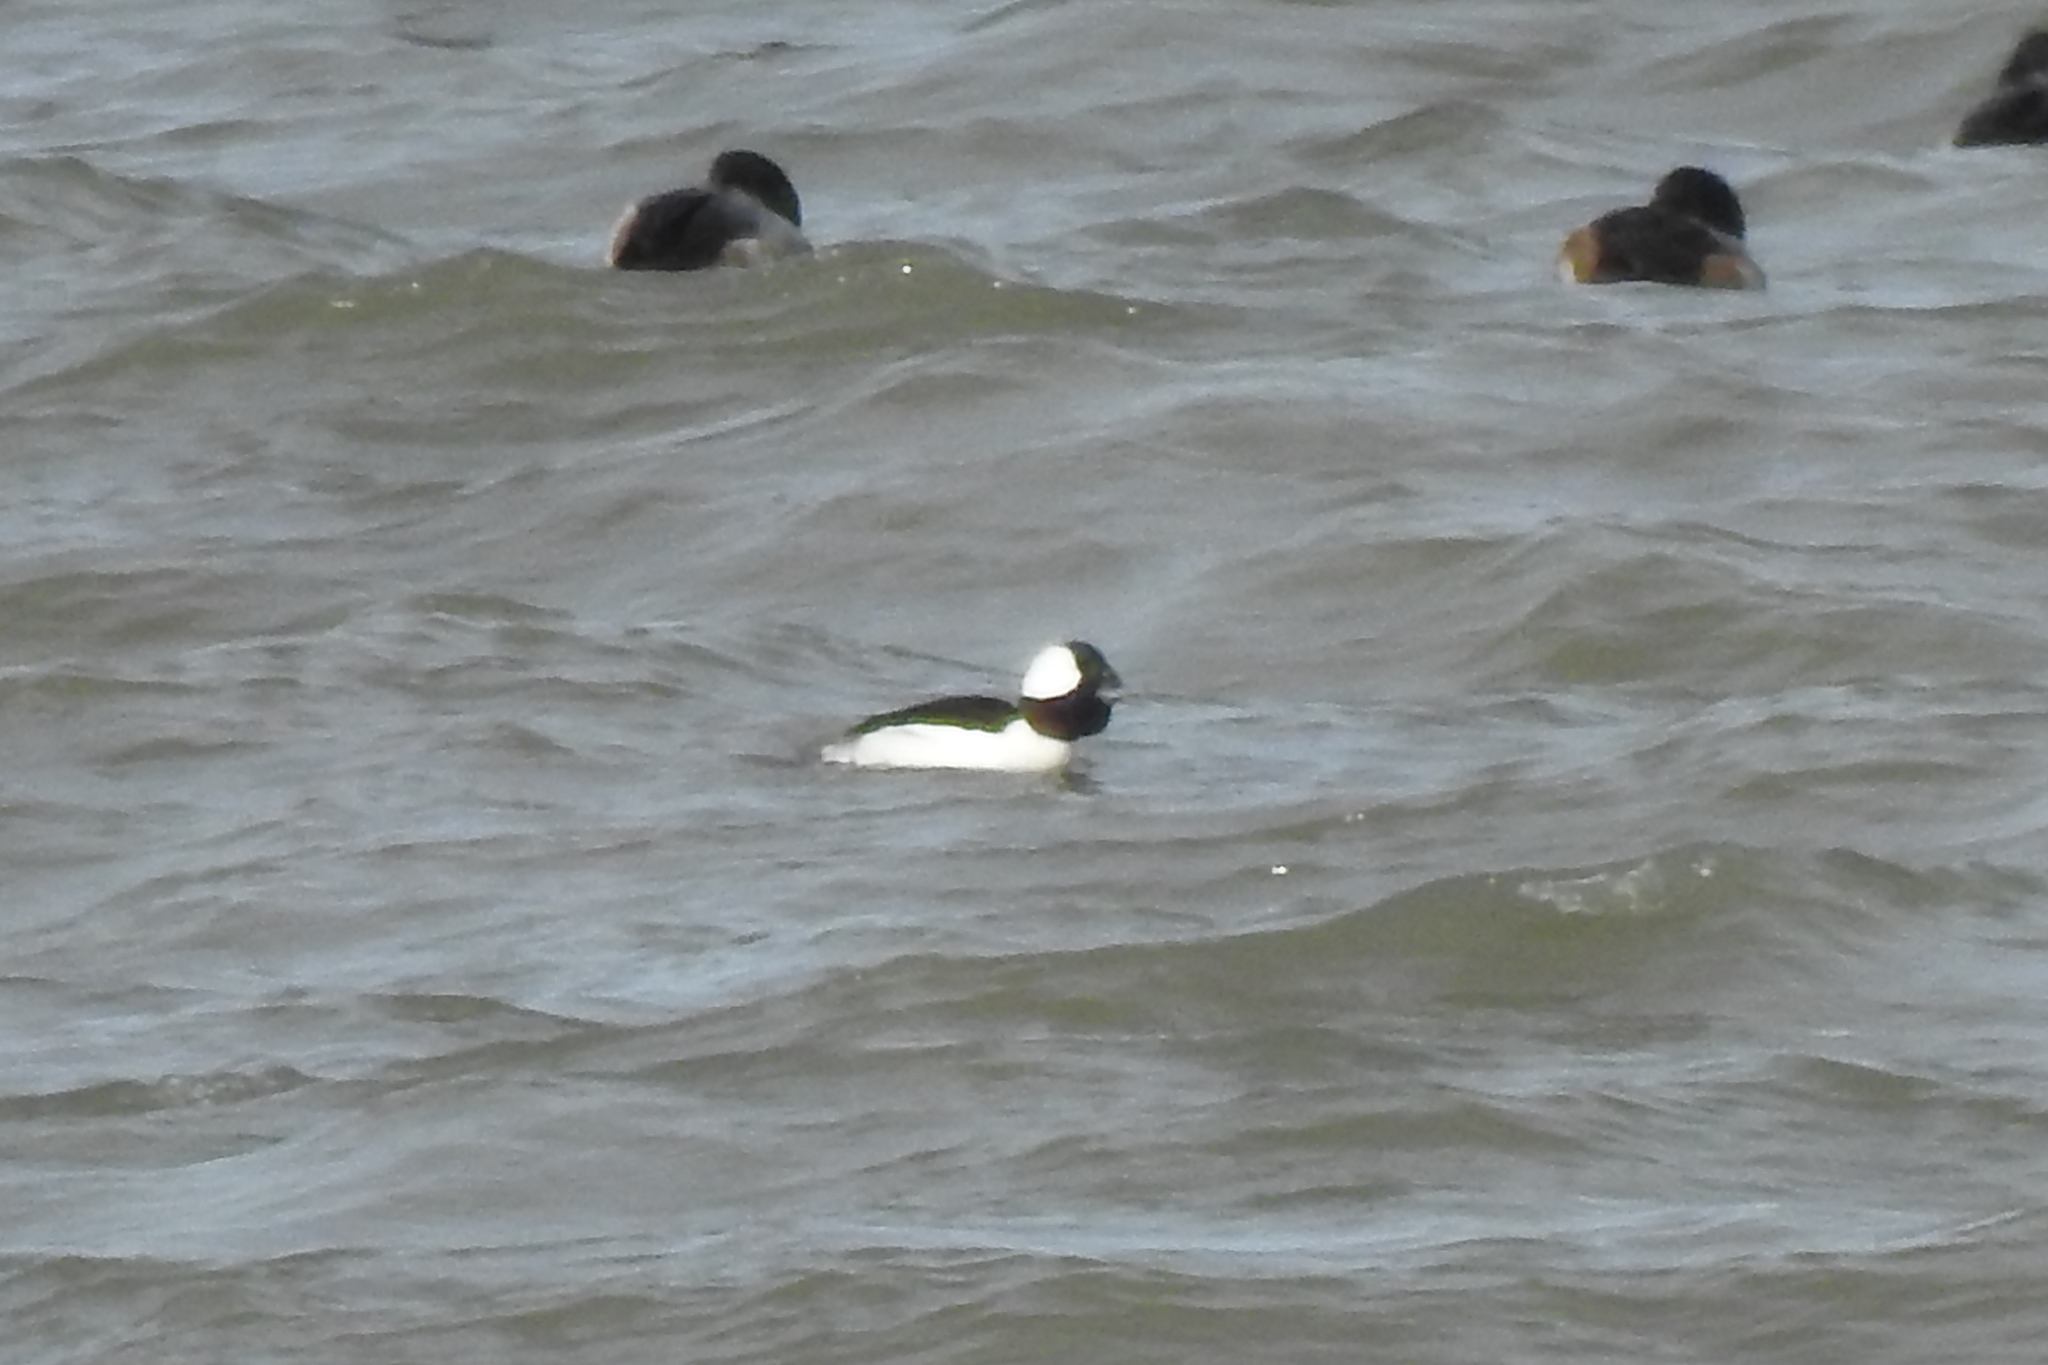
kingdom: Animalia
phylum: Chordata
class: Aves
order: Anseriformes
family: Anatidae
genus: Bucephala
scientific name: Bucephala albeola
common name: Bufflehead
